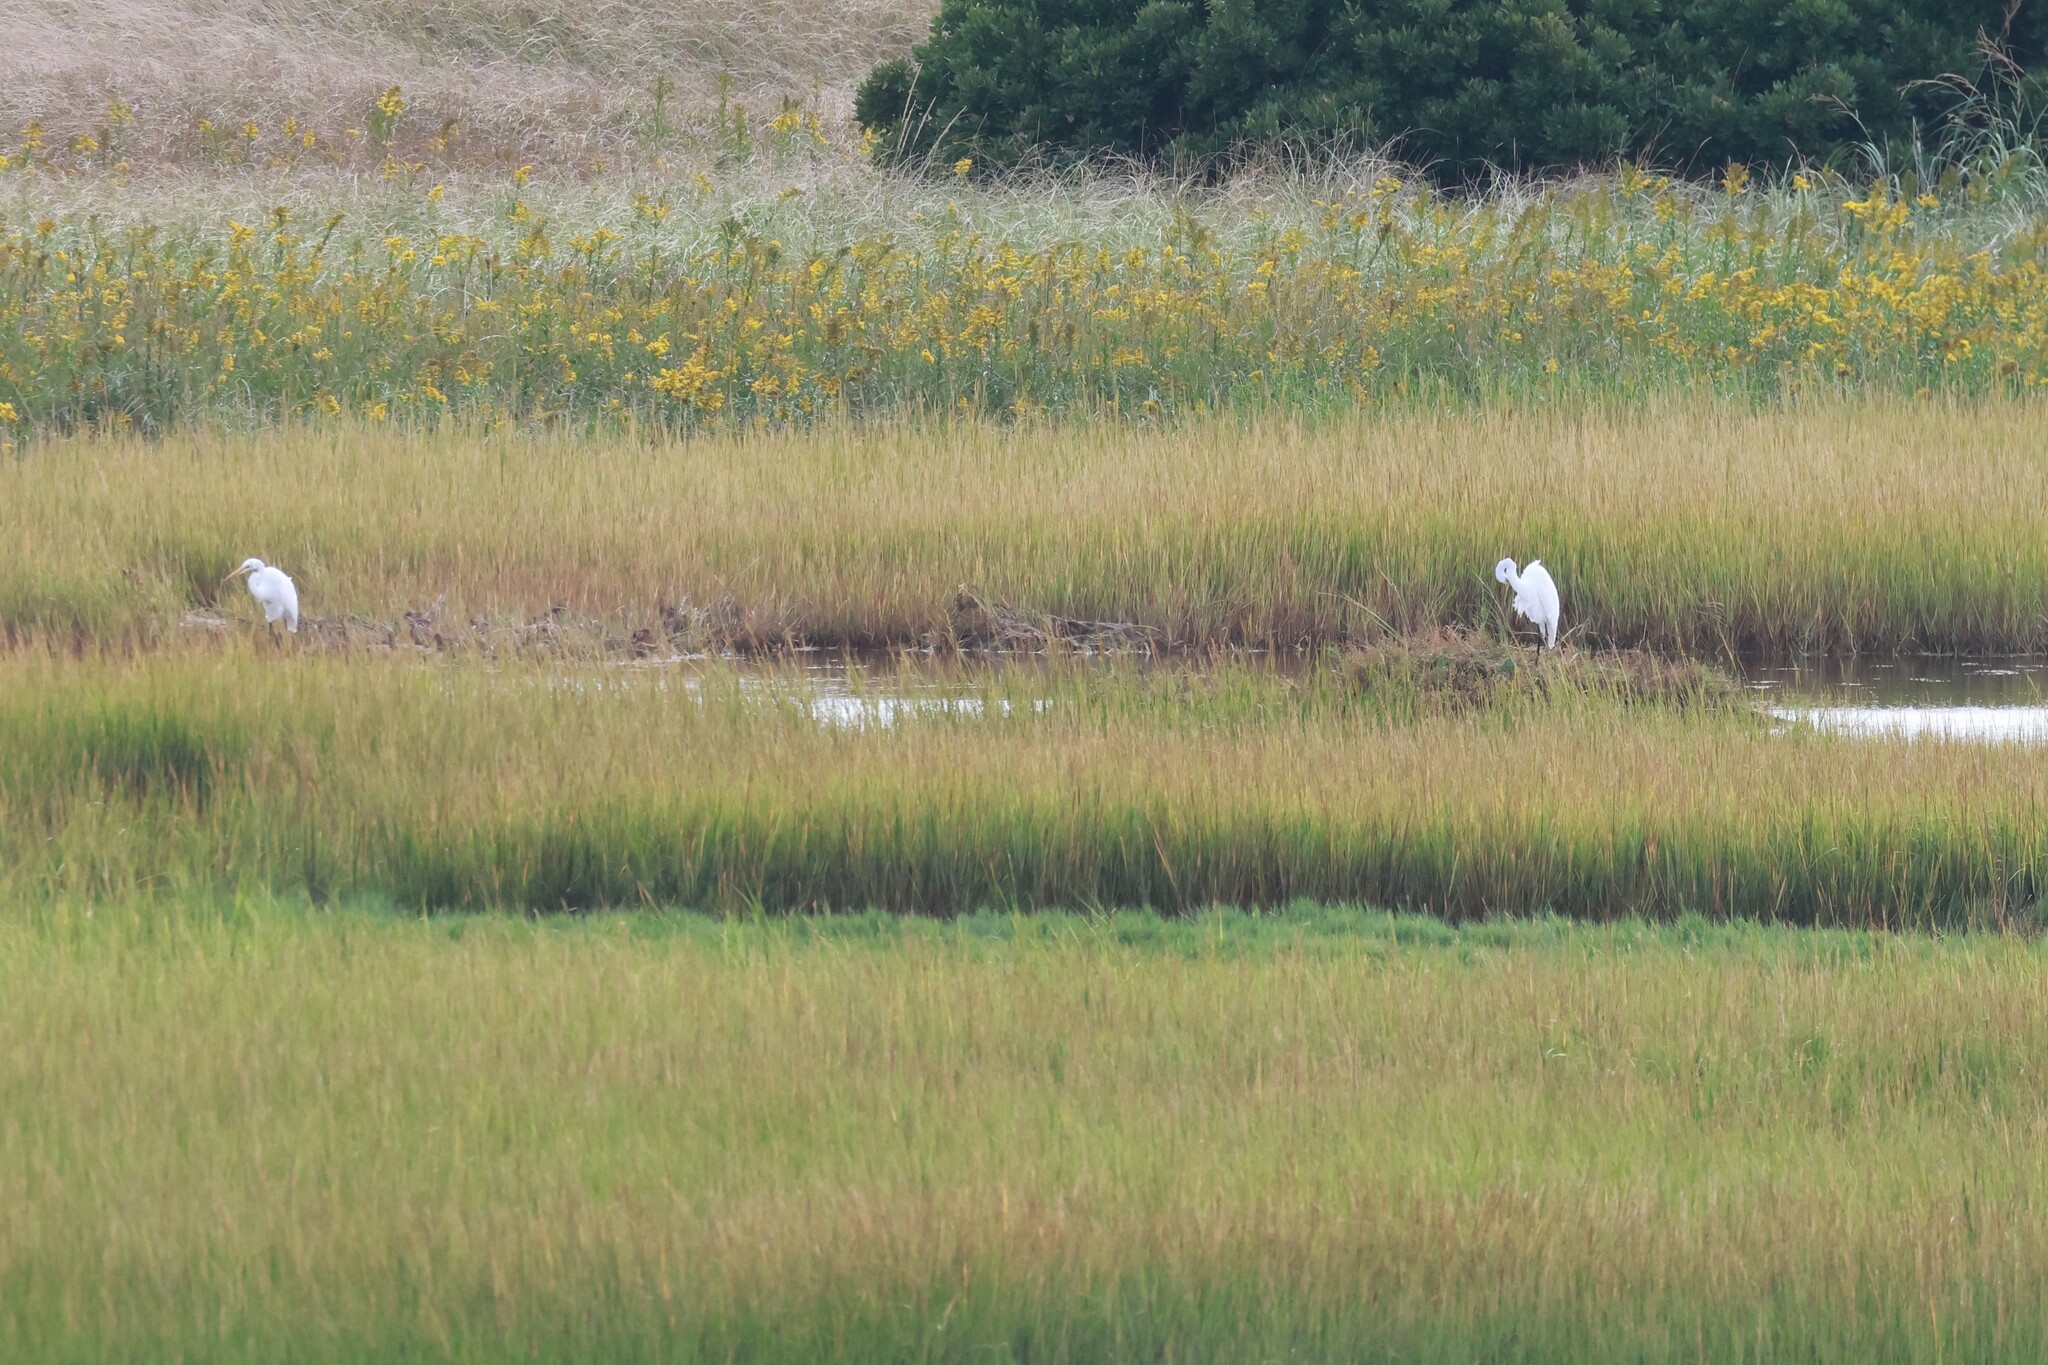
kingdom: Animalia
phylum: Chordata
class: Aves
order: Pelecaniformes
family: Ardeidae
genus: Ardea
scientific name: Ardea alba
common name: Great egret
